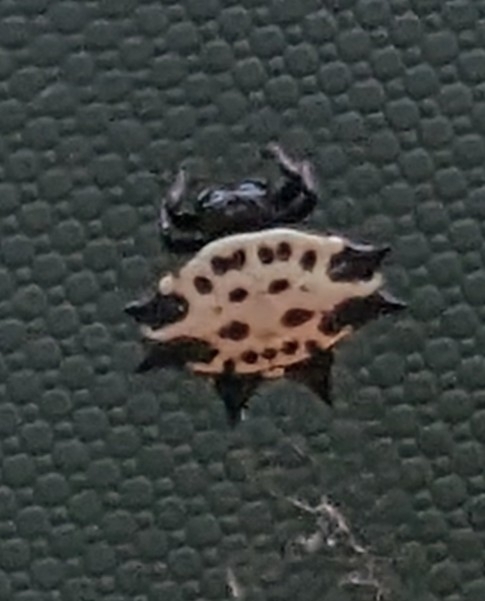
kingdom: Animalia
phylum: Arthropoda
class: Arachnida
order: Araneae
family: Araneidae
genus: Gasteracantha
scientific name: Gasteracantha cancriformis
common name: Orb weavers
